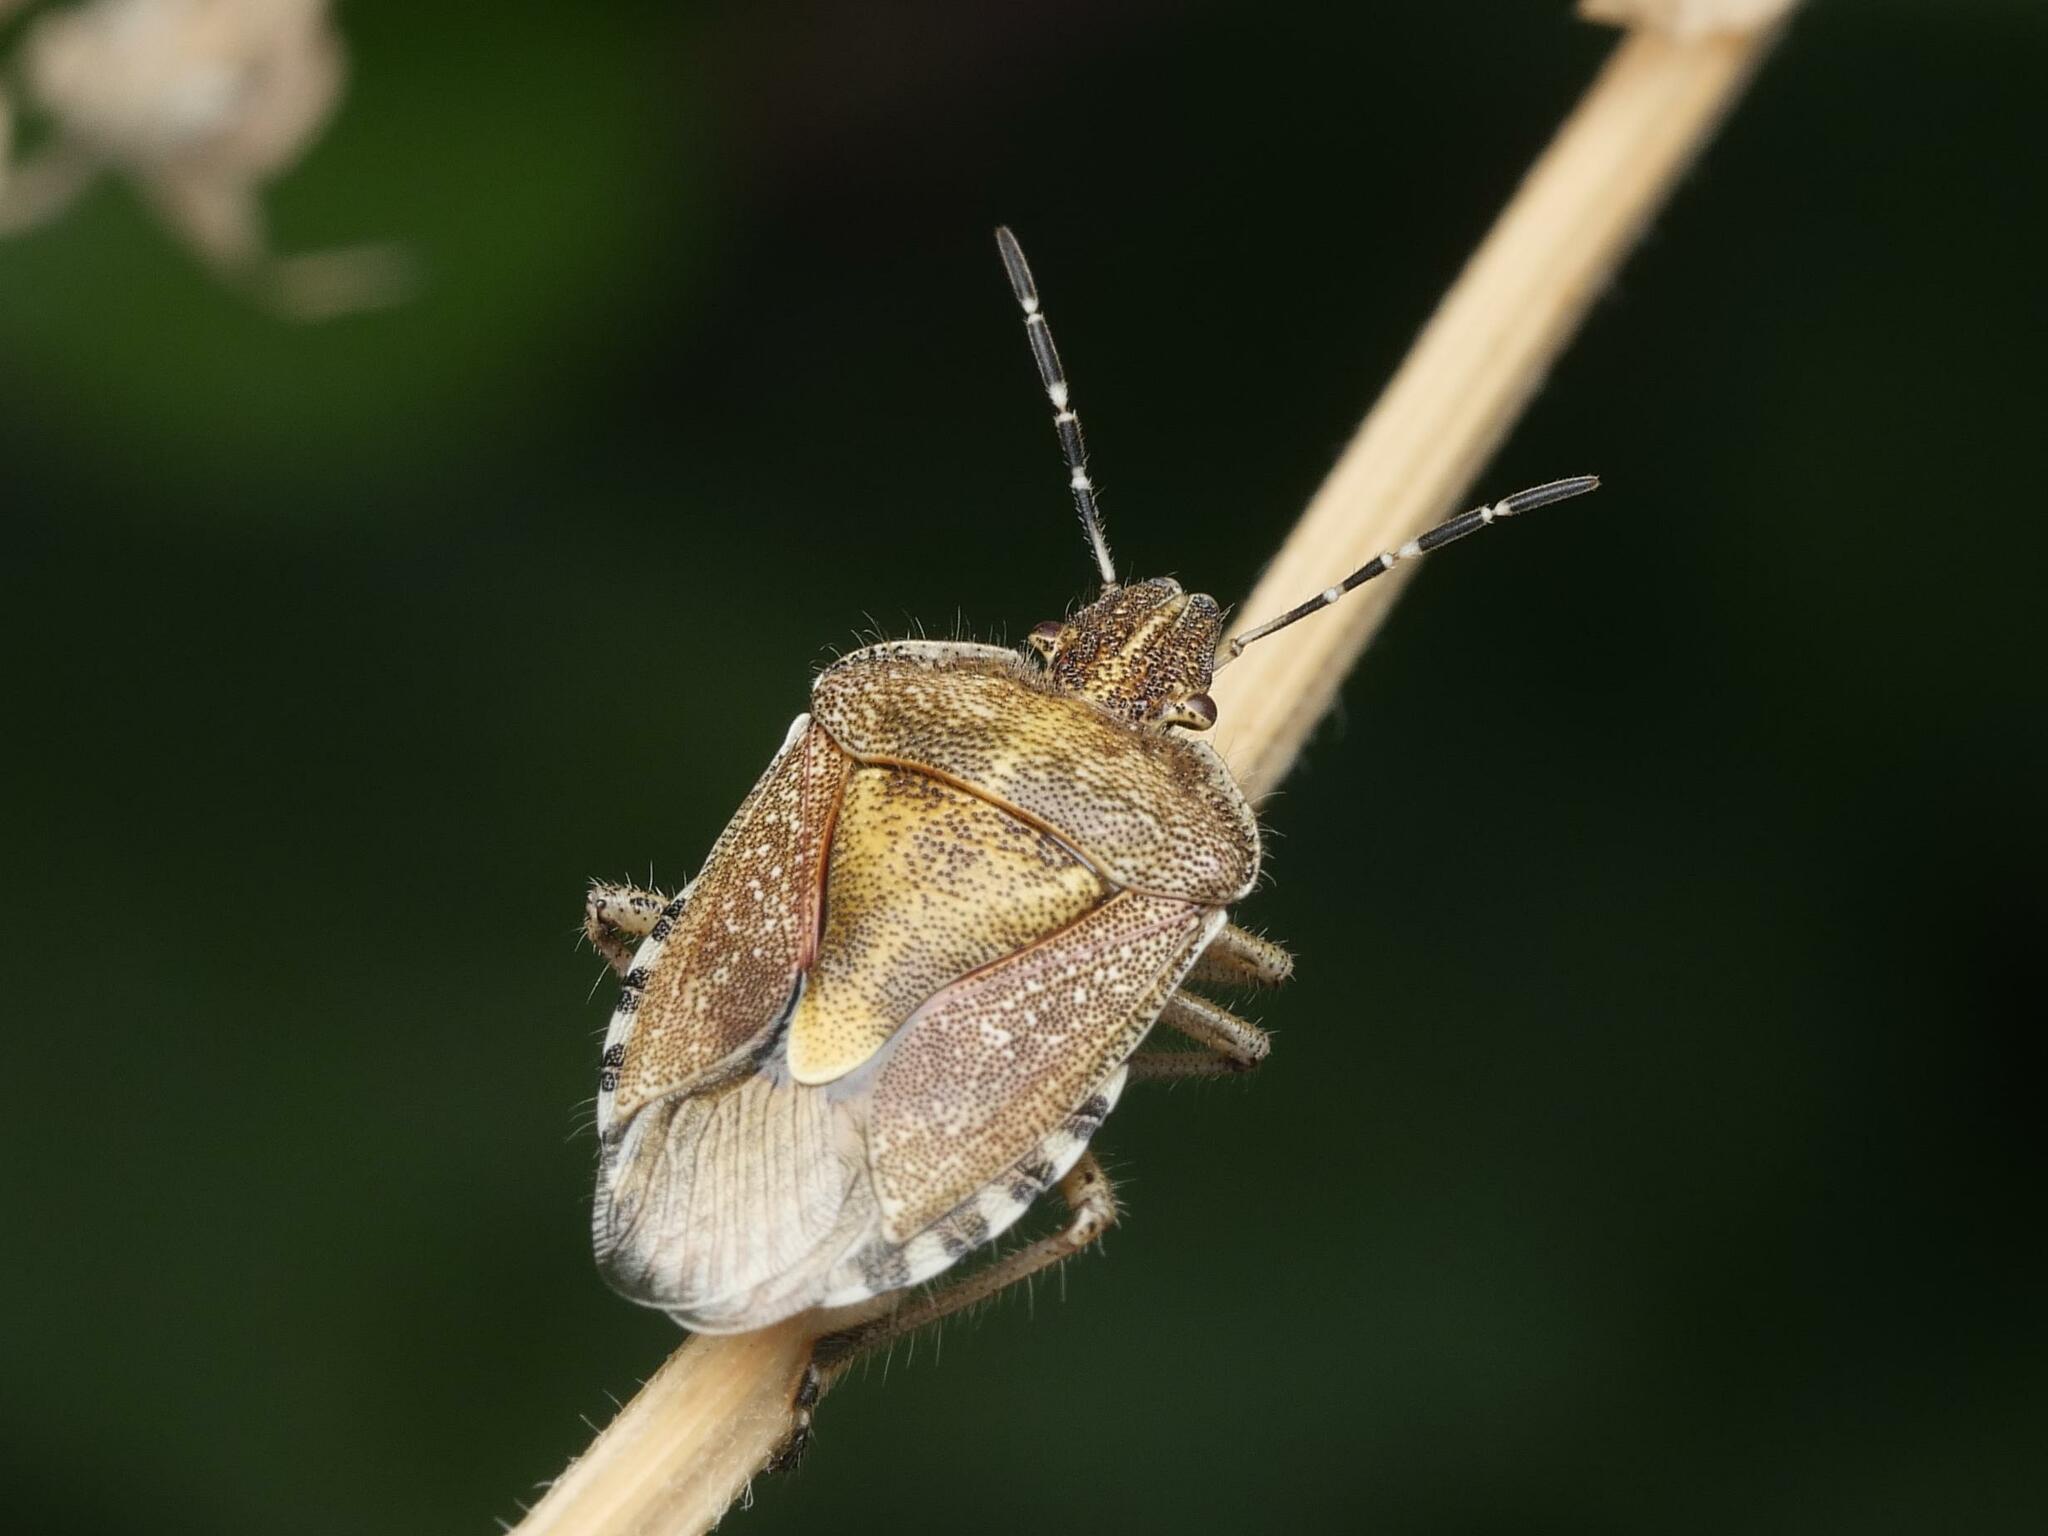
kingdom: Animalia
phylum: Arthropoda
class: Insecta
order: Hemiptera
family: Pentatomidae
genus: Dolycoris
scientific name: Dolycoris baccarum
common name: Sloe bug
